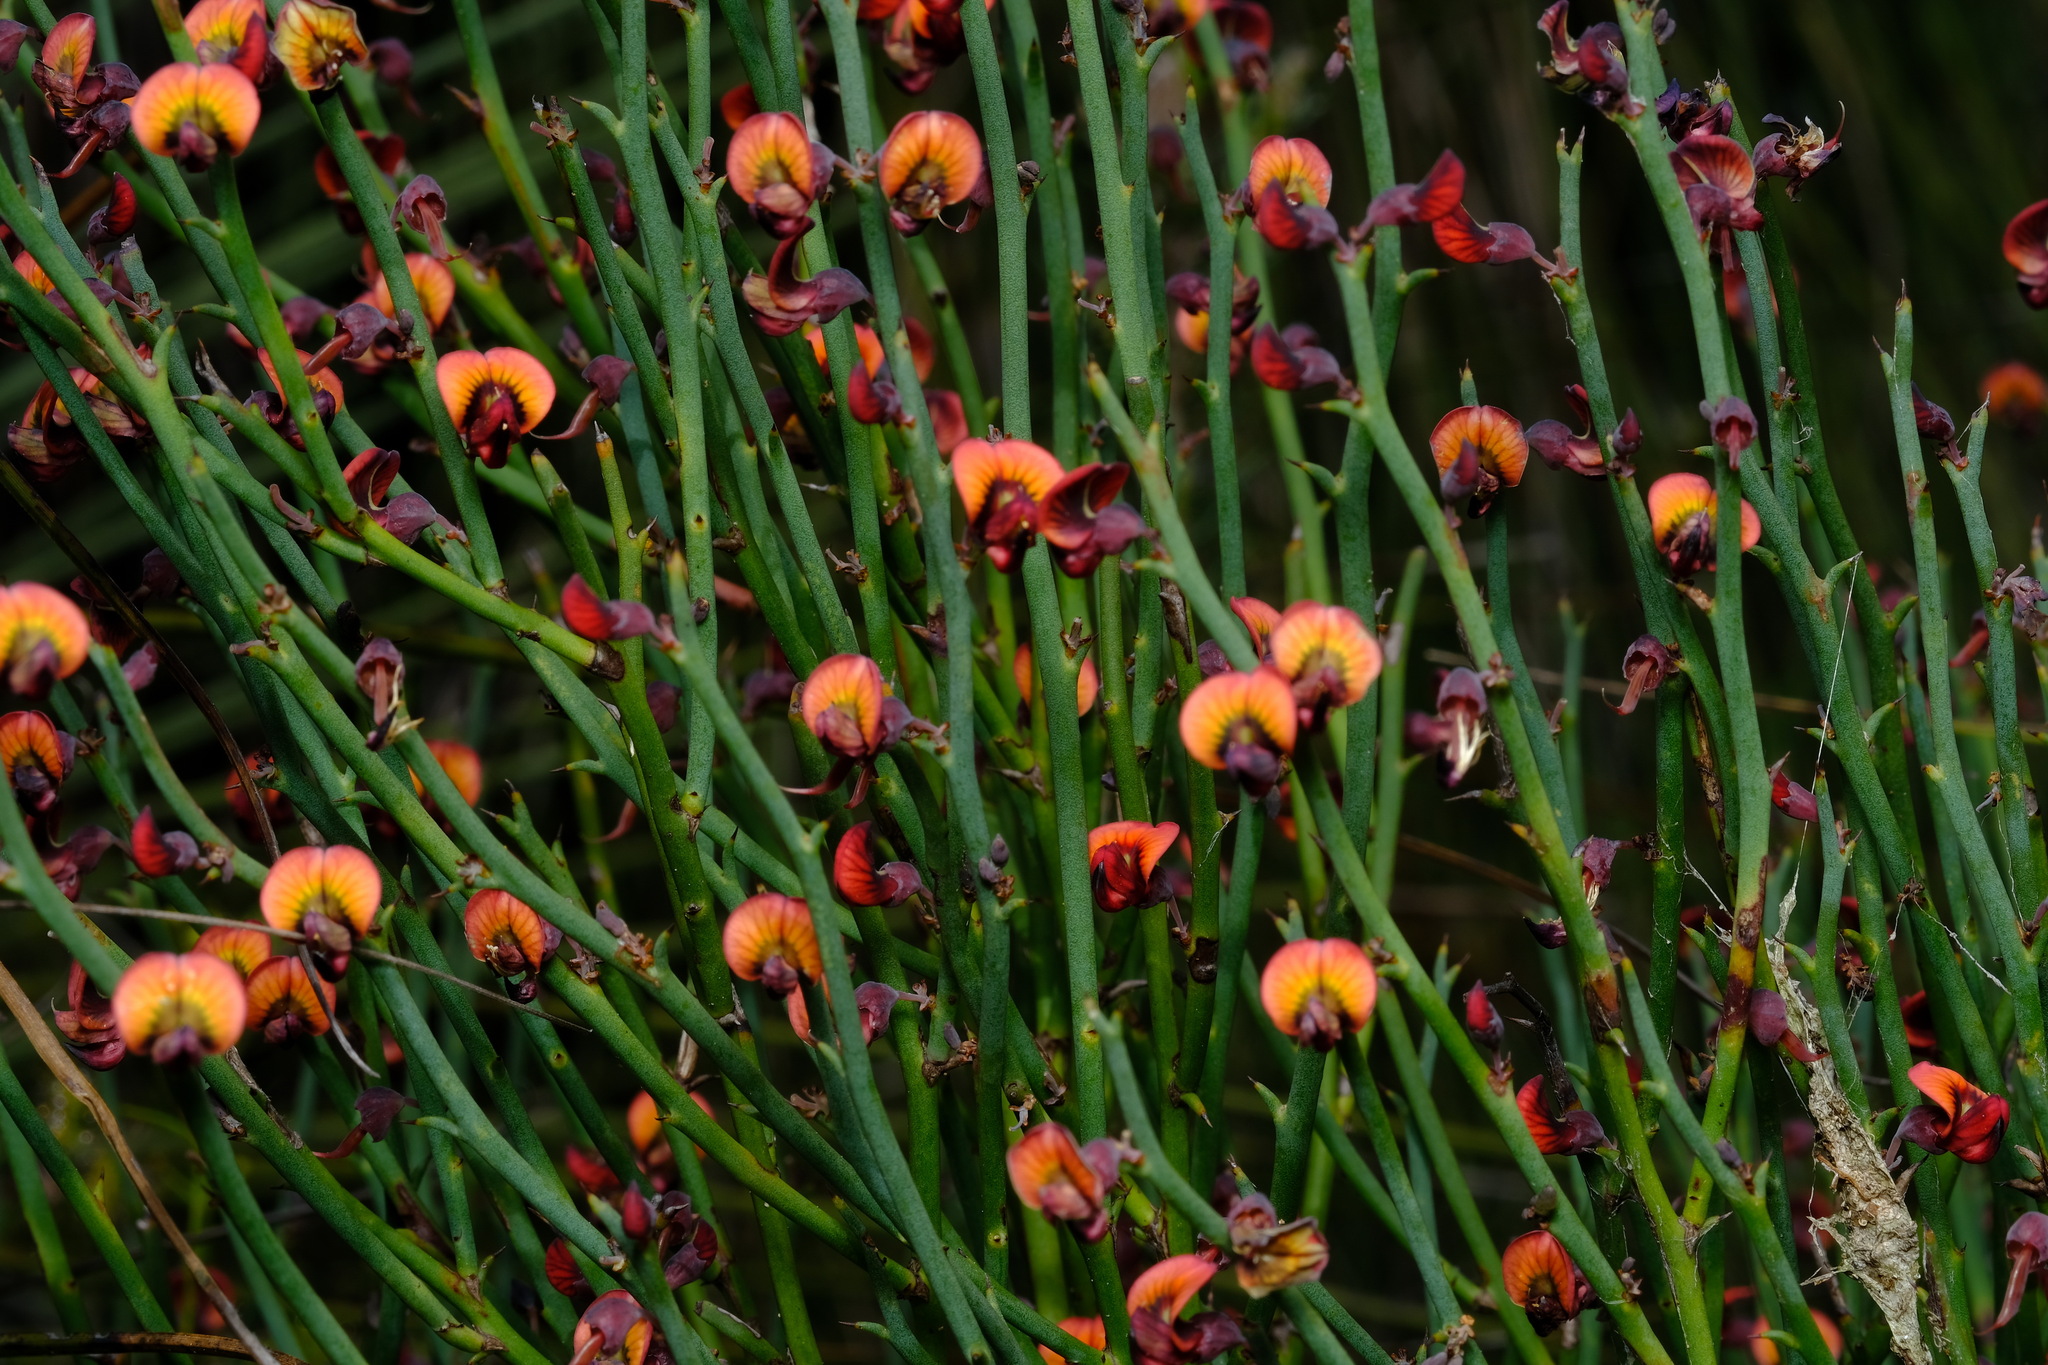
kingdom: Plantae
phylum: Tracheophyta
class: Magnoliopsida
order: Fabales
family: Fabaceae
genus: Daviesia
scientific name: Daviesia brevifolia
